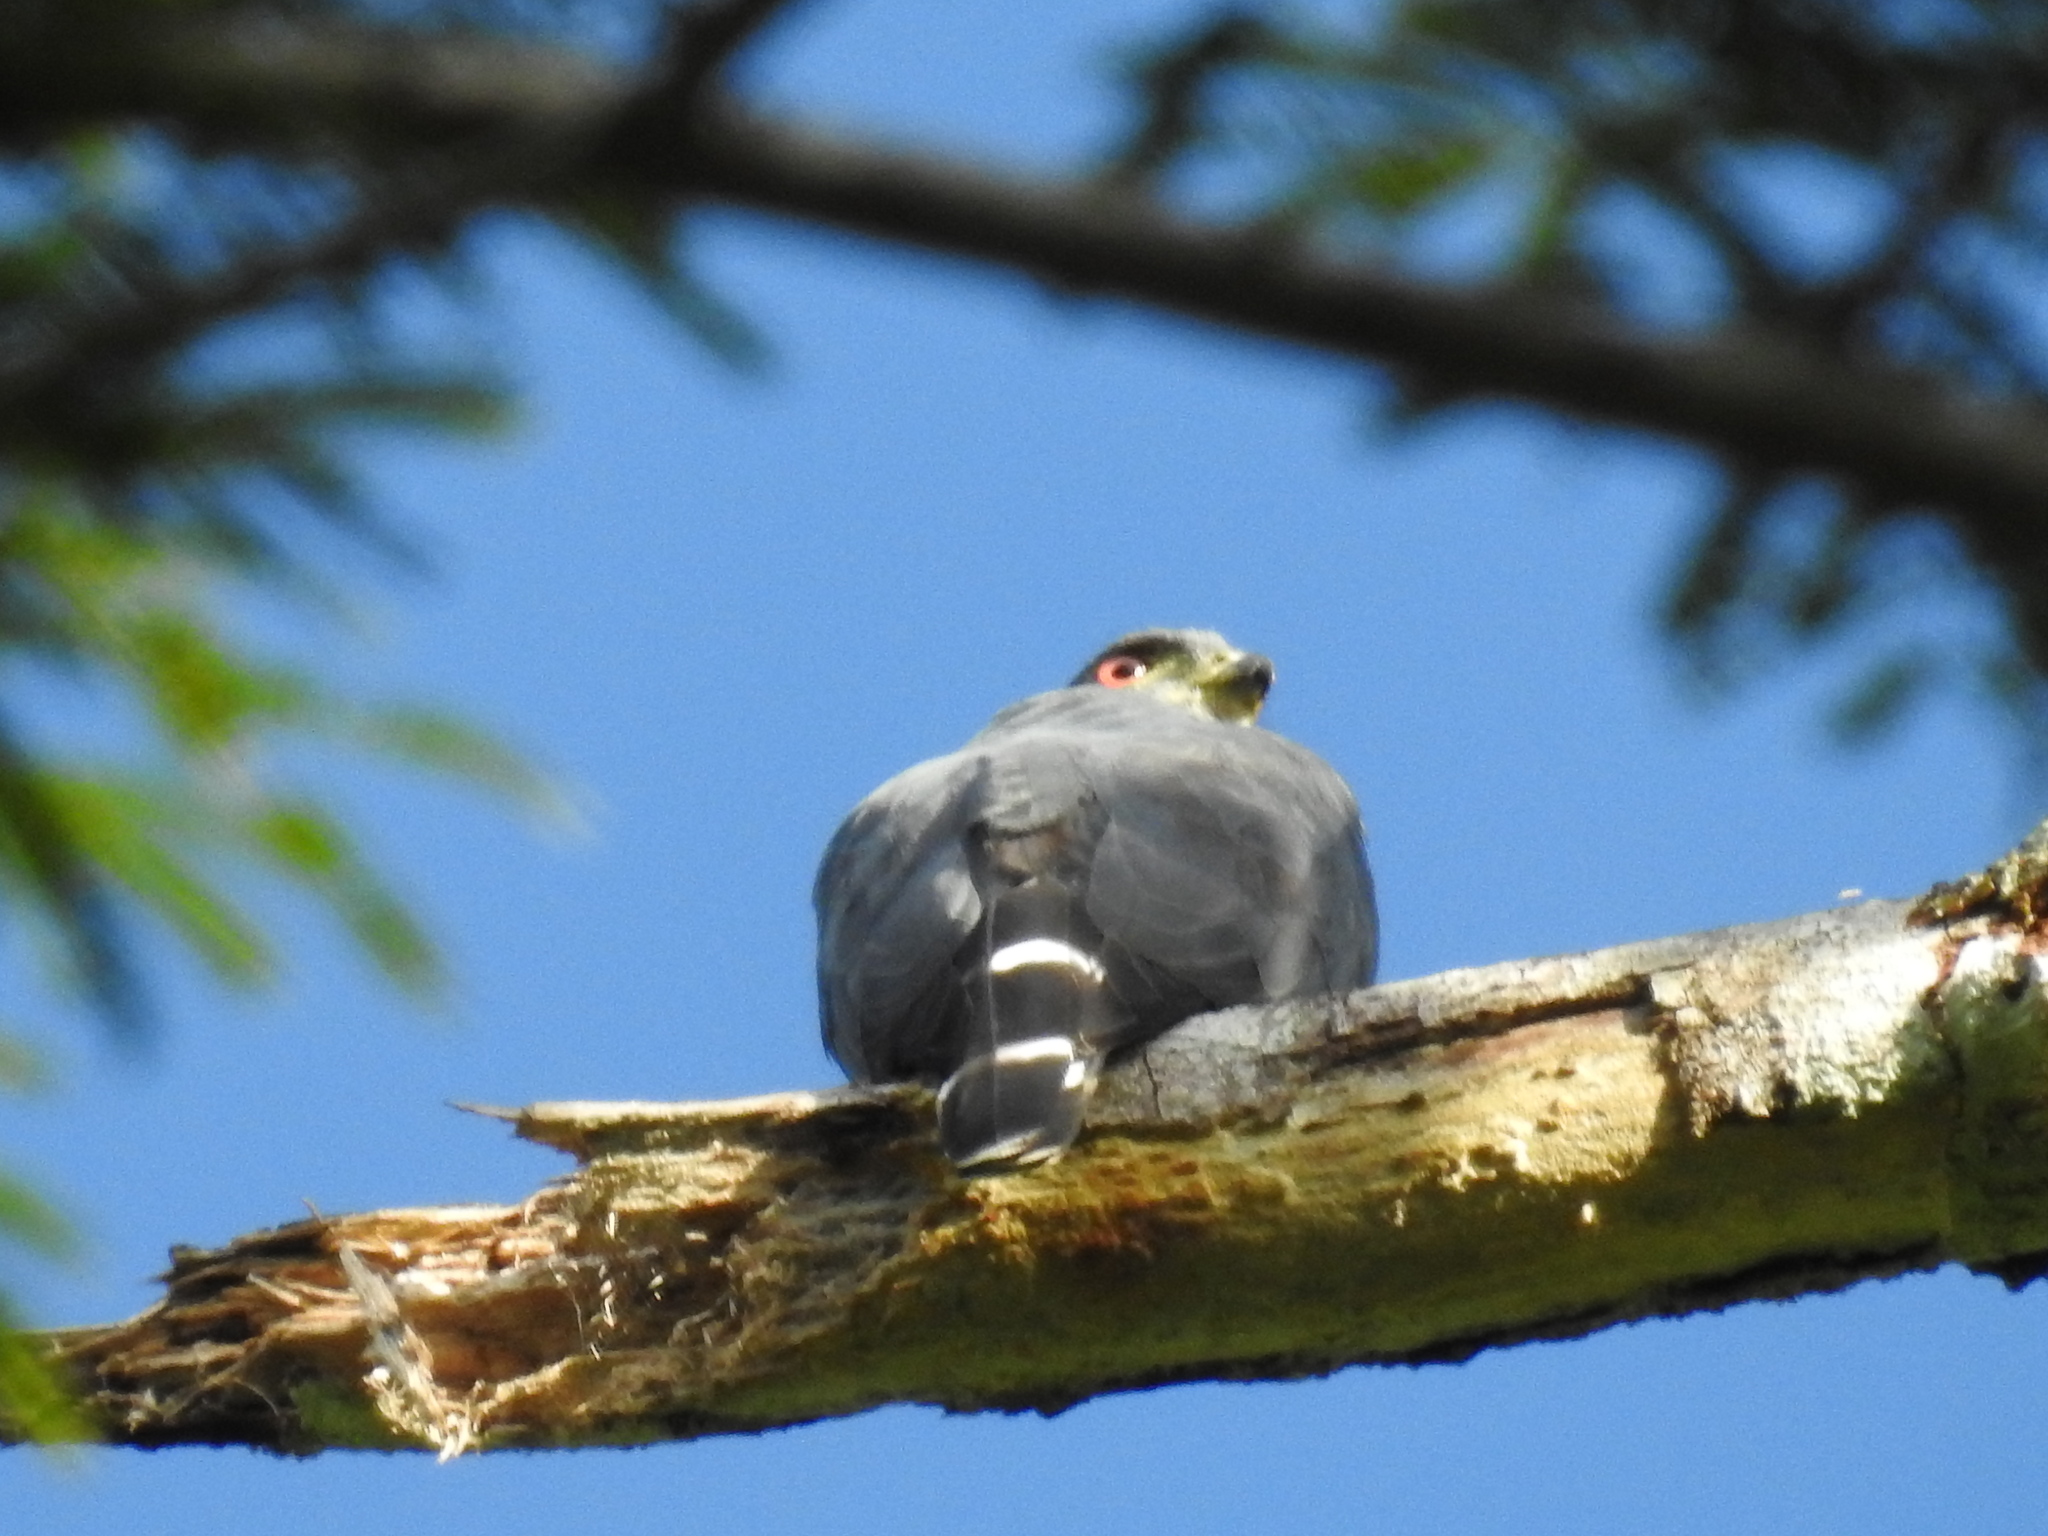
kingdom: Animalia
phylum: Chordata
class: Aves
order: Accipitriformes
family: Accipitridae
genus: Harpagus
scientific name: Harpagus bidentatus
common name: Double-toothed kite
